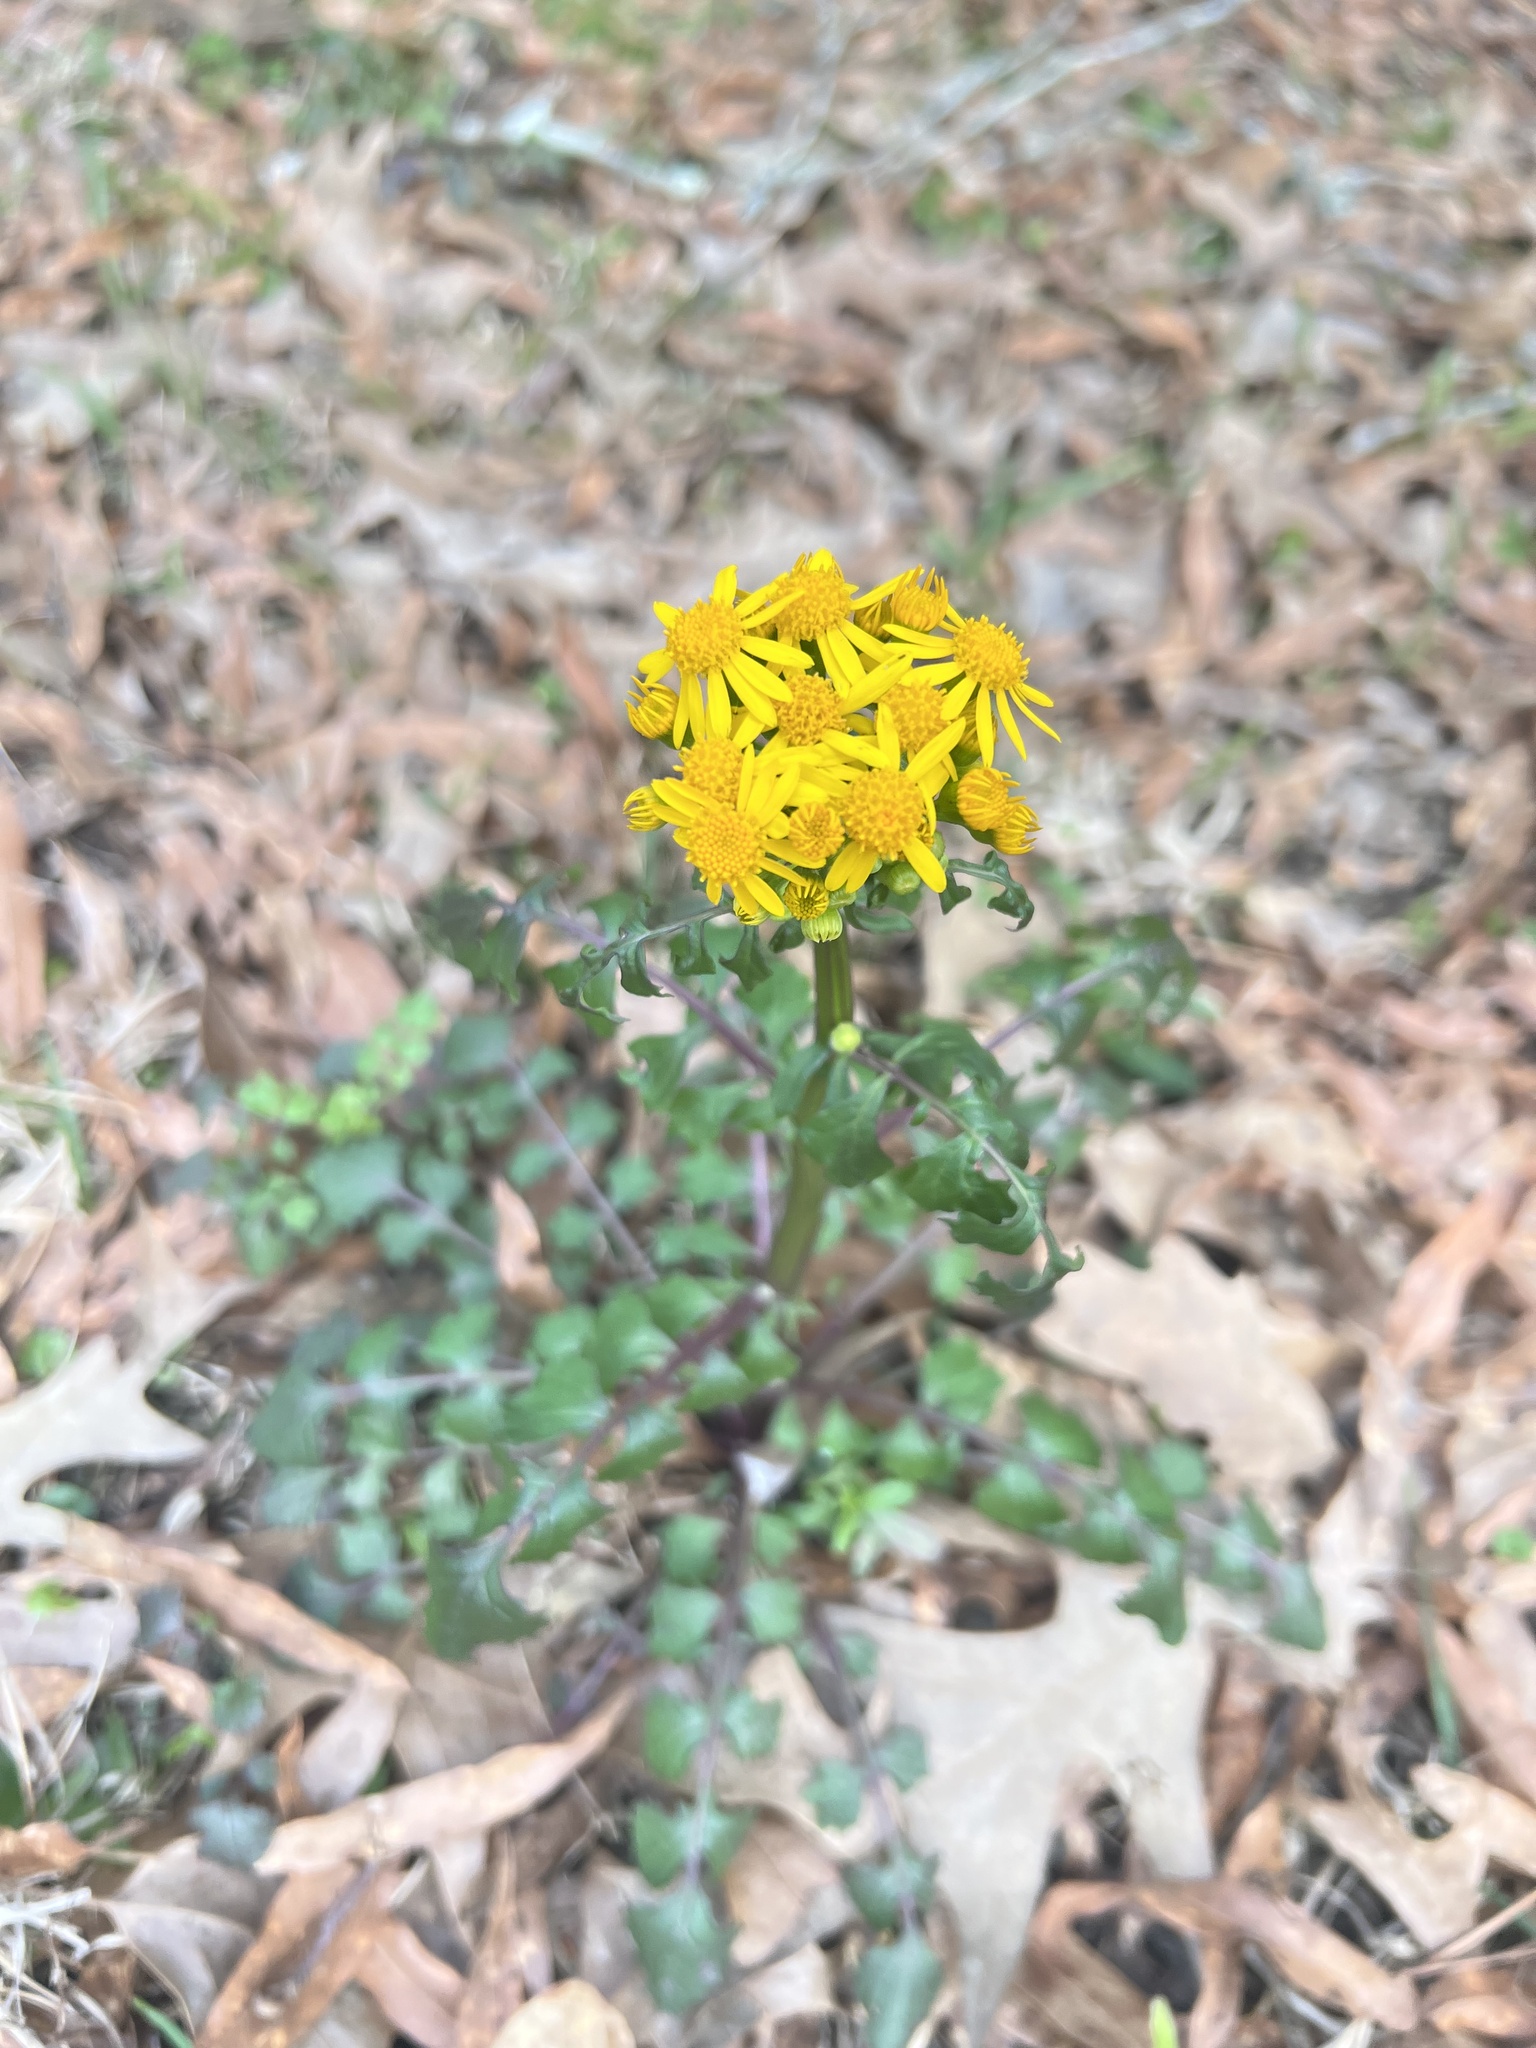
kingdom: Plantae
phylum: Tracheophyta
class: Magnoliopsida
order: Asterales
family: Asteraceae
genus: Packera
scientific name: Packera glabella
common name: Butterweed
